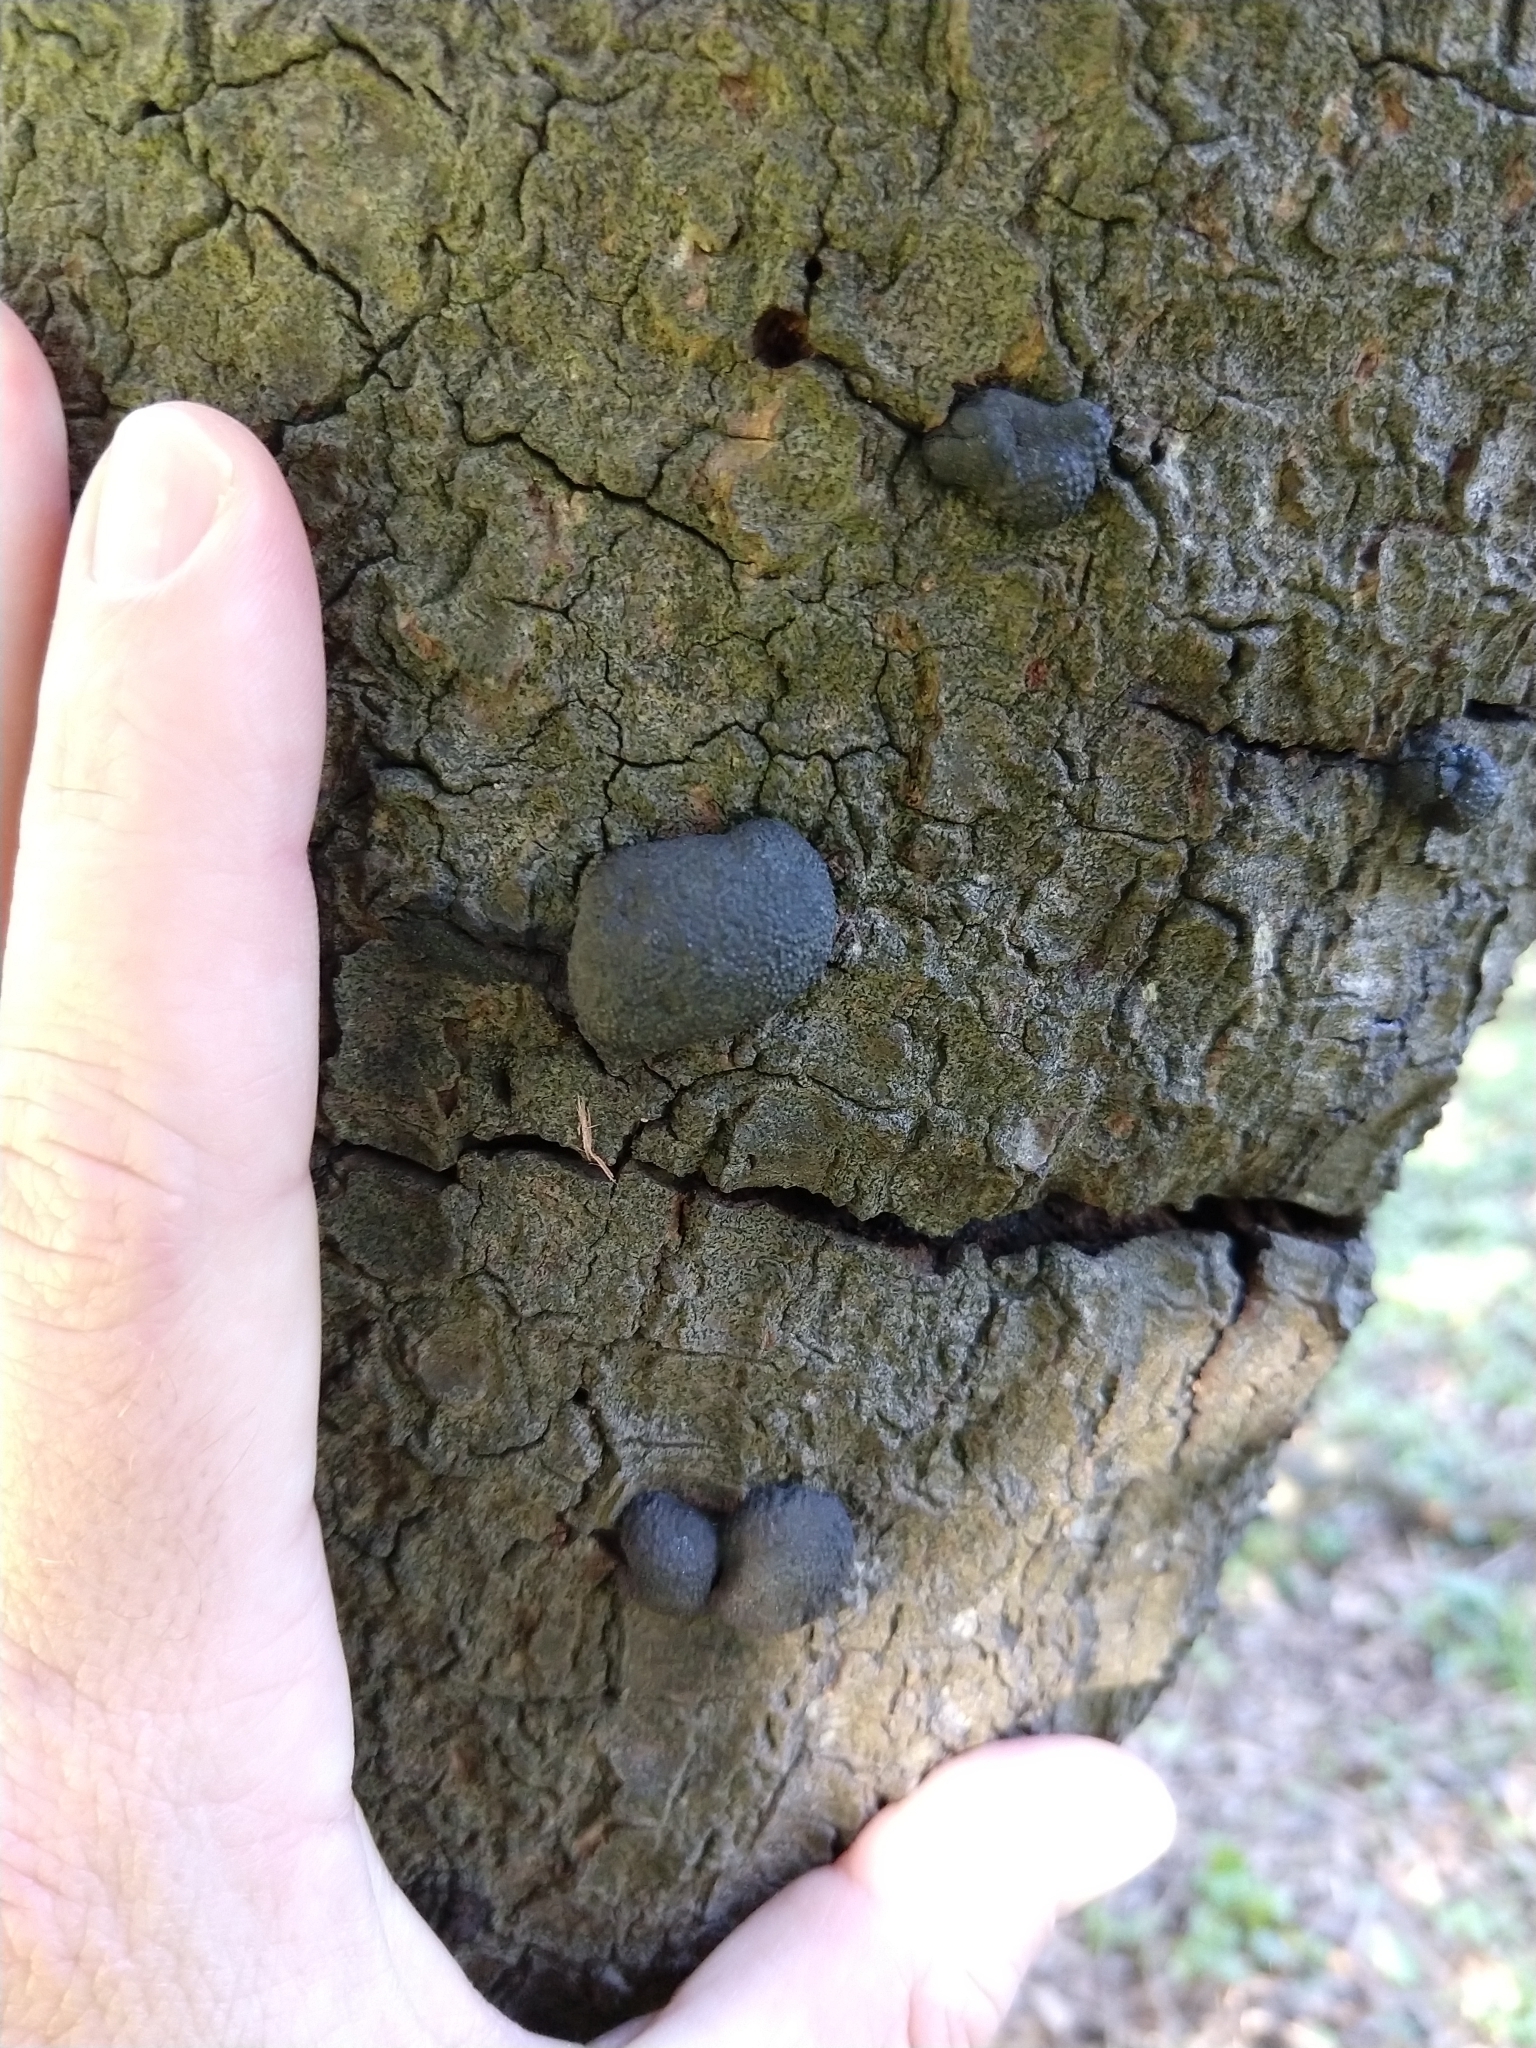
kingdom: Fungi
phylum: Ascomycota
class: Sordariomycetes
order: Xylariales
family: Hypoxylaceae
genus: Annulohypoxylon
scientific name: Annulohypoxylon thouarsianum
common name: Cramp balls
